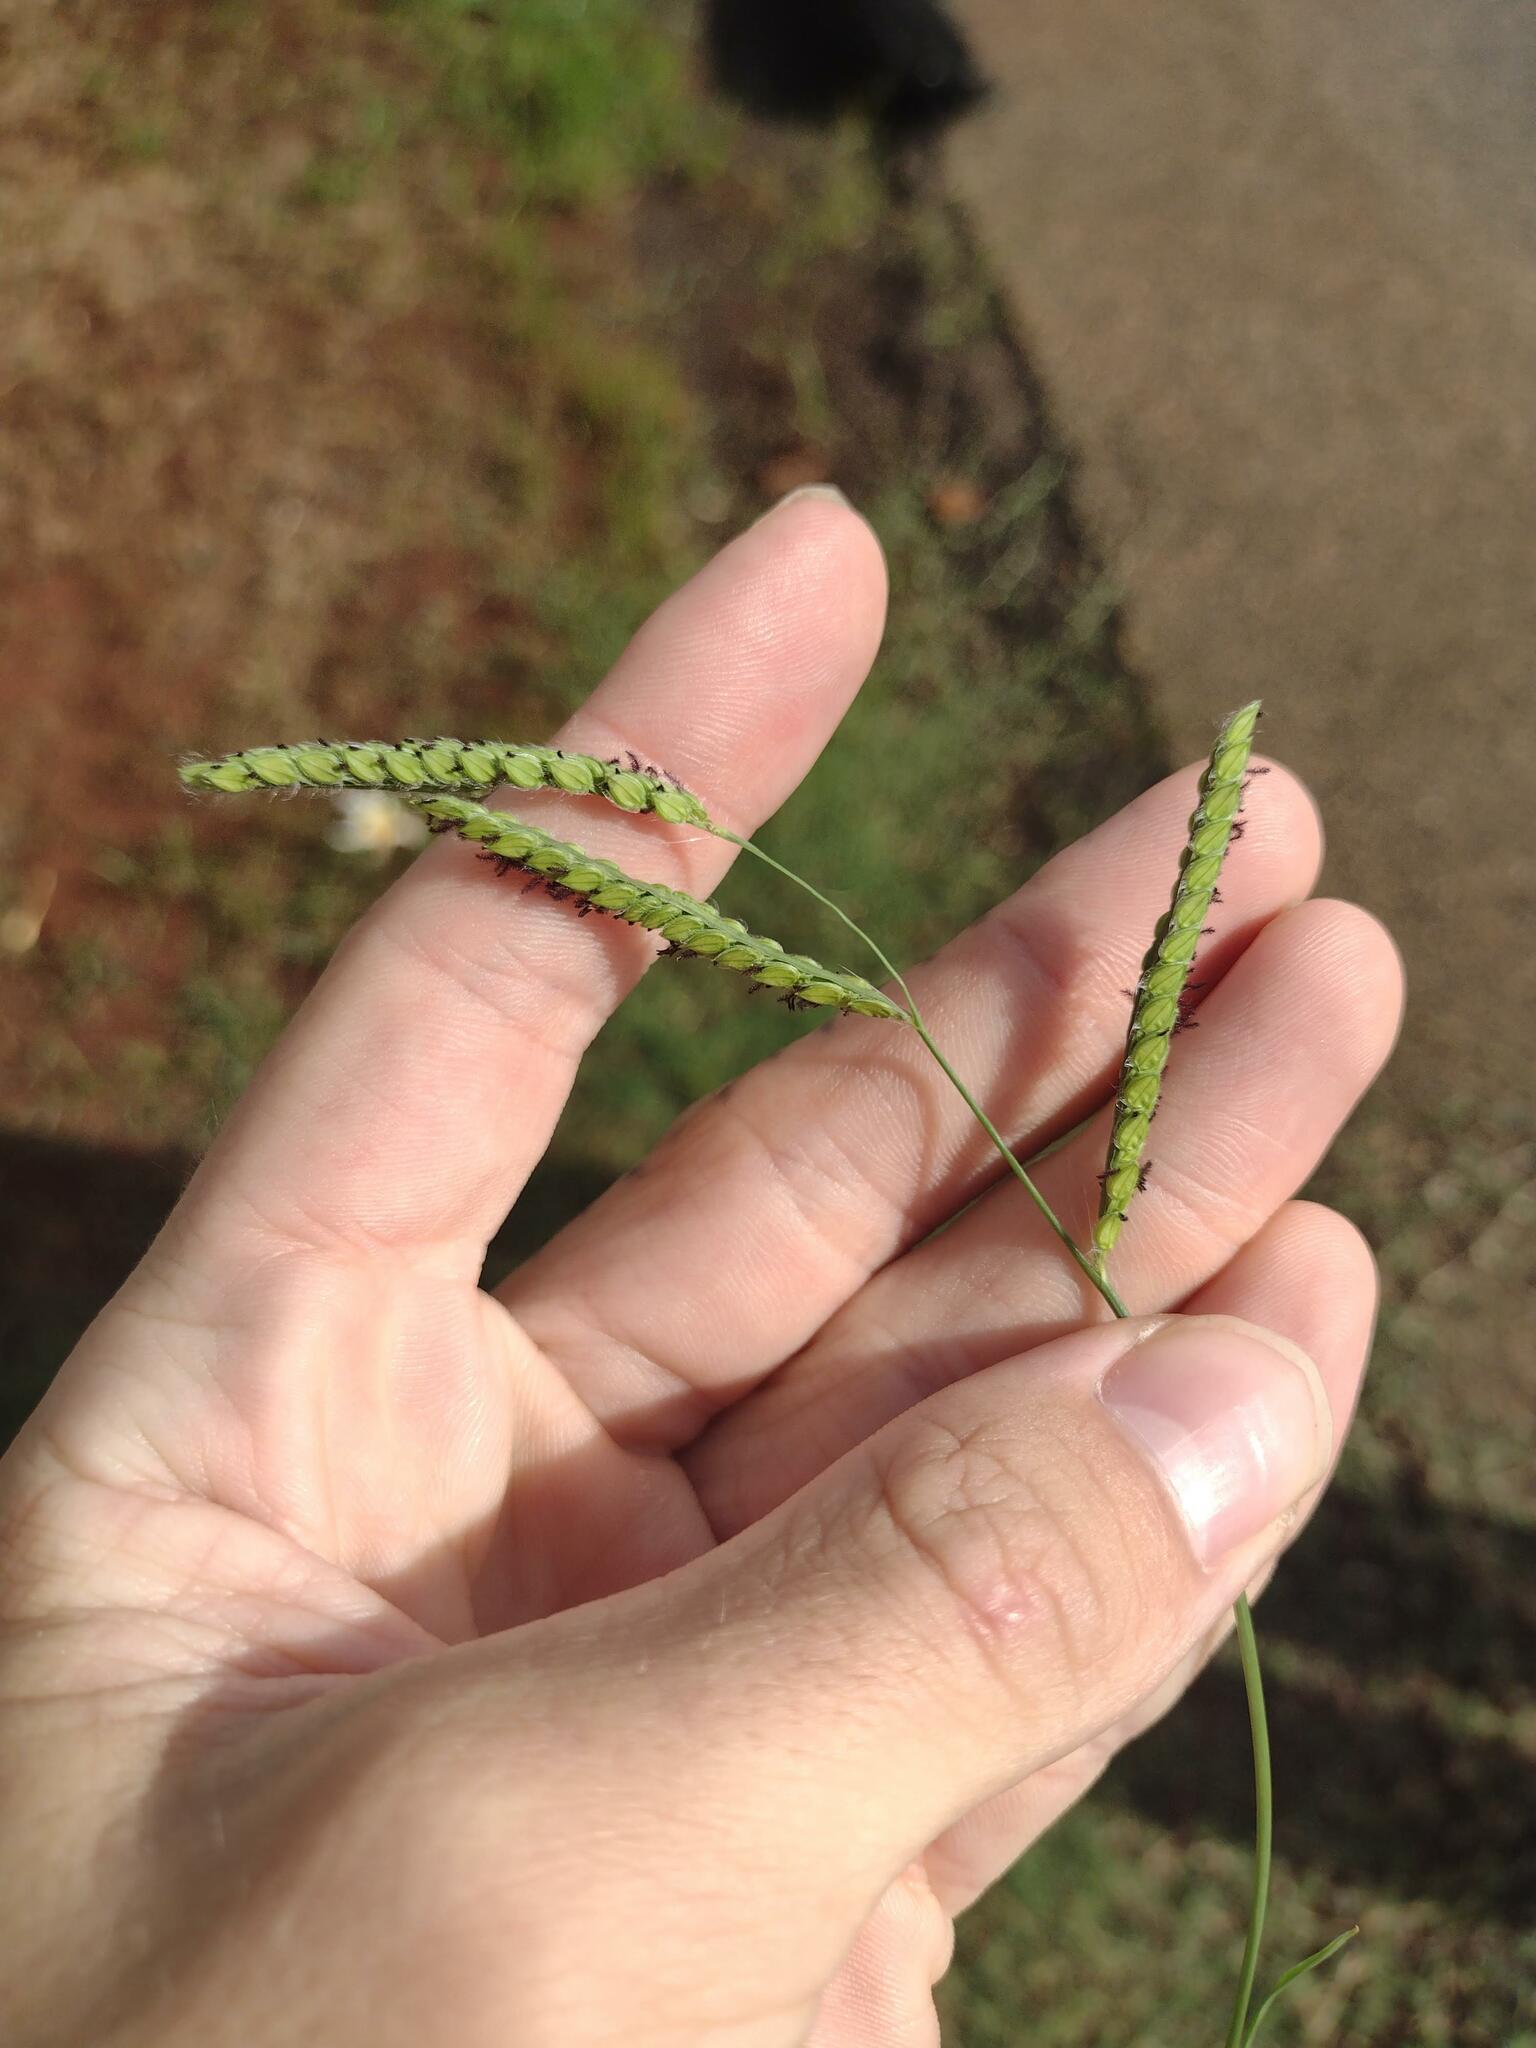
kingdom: Plantae
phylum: Tracheophyta
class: Liliopsida
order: Poales
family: Poaceae
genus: Paspalum
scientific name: Paspalum dilatatum
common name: Dallisgrass
